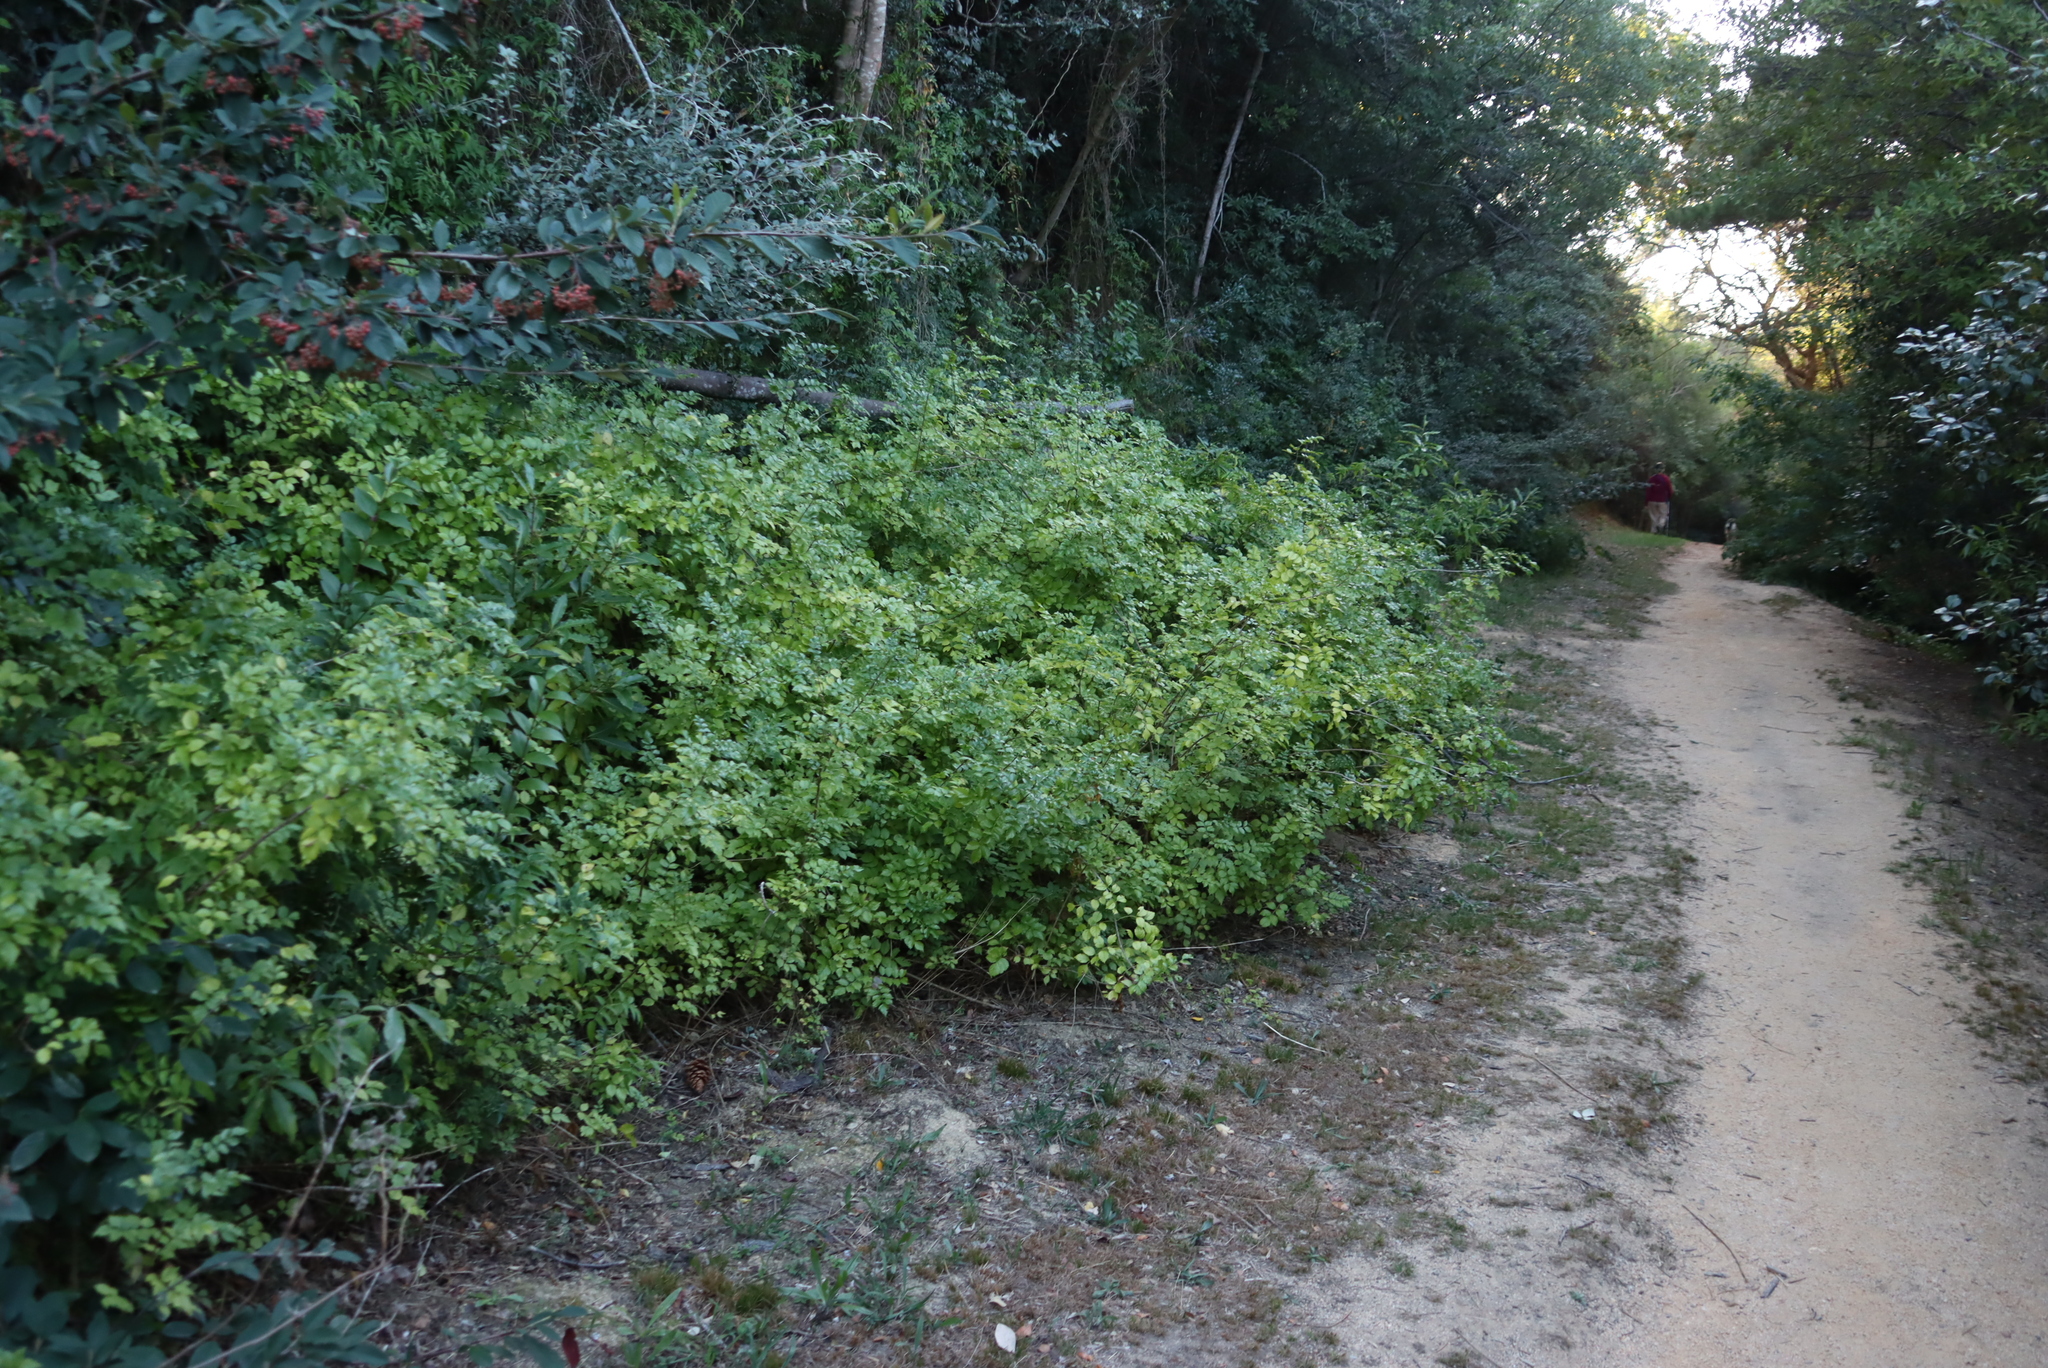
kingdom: Plantae
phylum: Tracheophyta
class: Magnoliopsida
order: Lamiales
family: Bignoniaceae
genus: Tecomaria
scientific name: Tecomaria capensis
